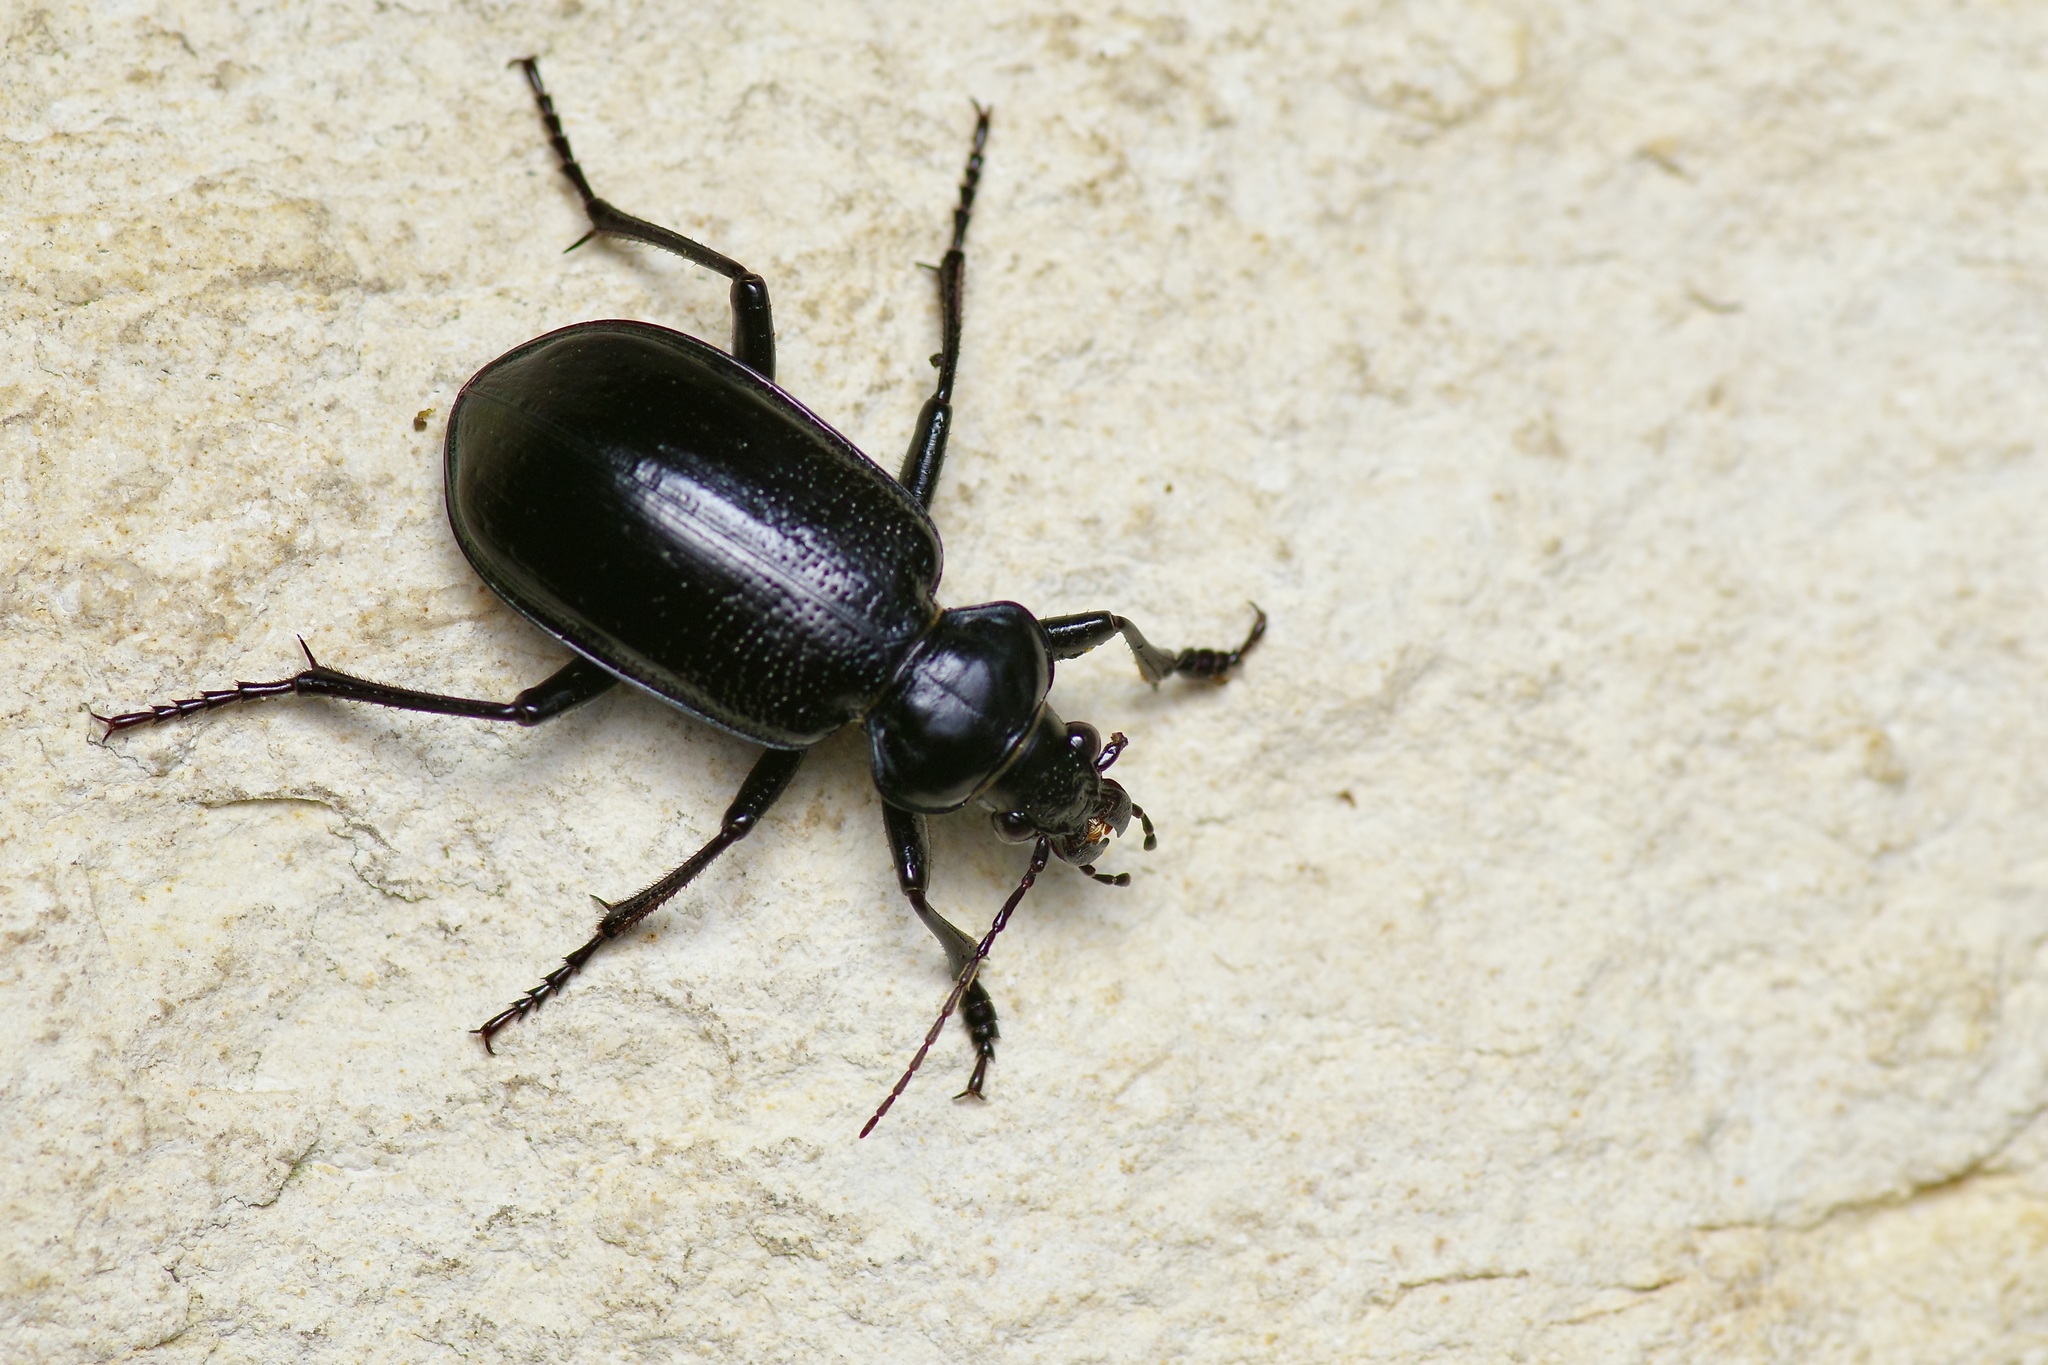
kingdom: Animalia
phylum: Arthropoda
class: Insecta
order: Coleoptera
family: Carabidae
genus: Calosoma
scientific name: Calosoma marginale
